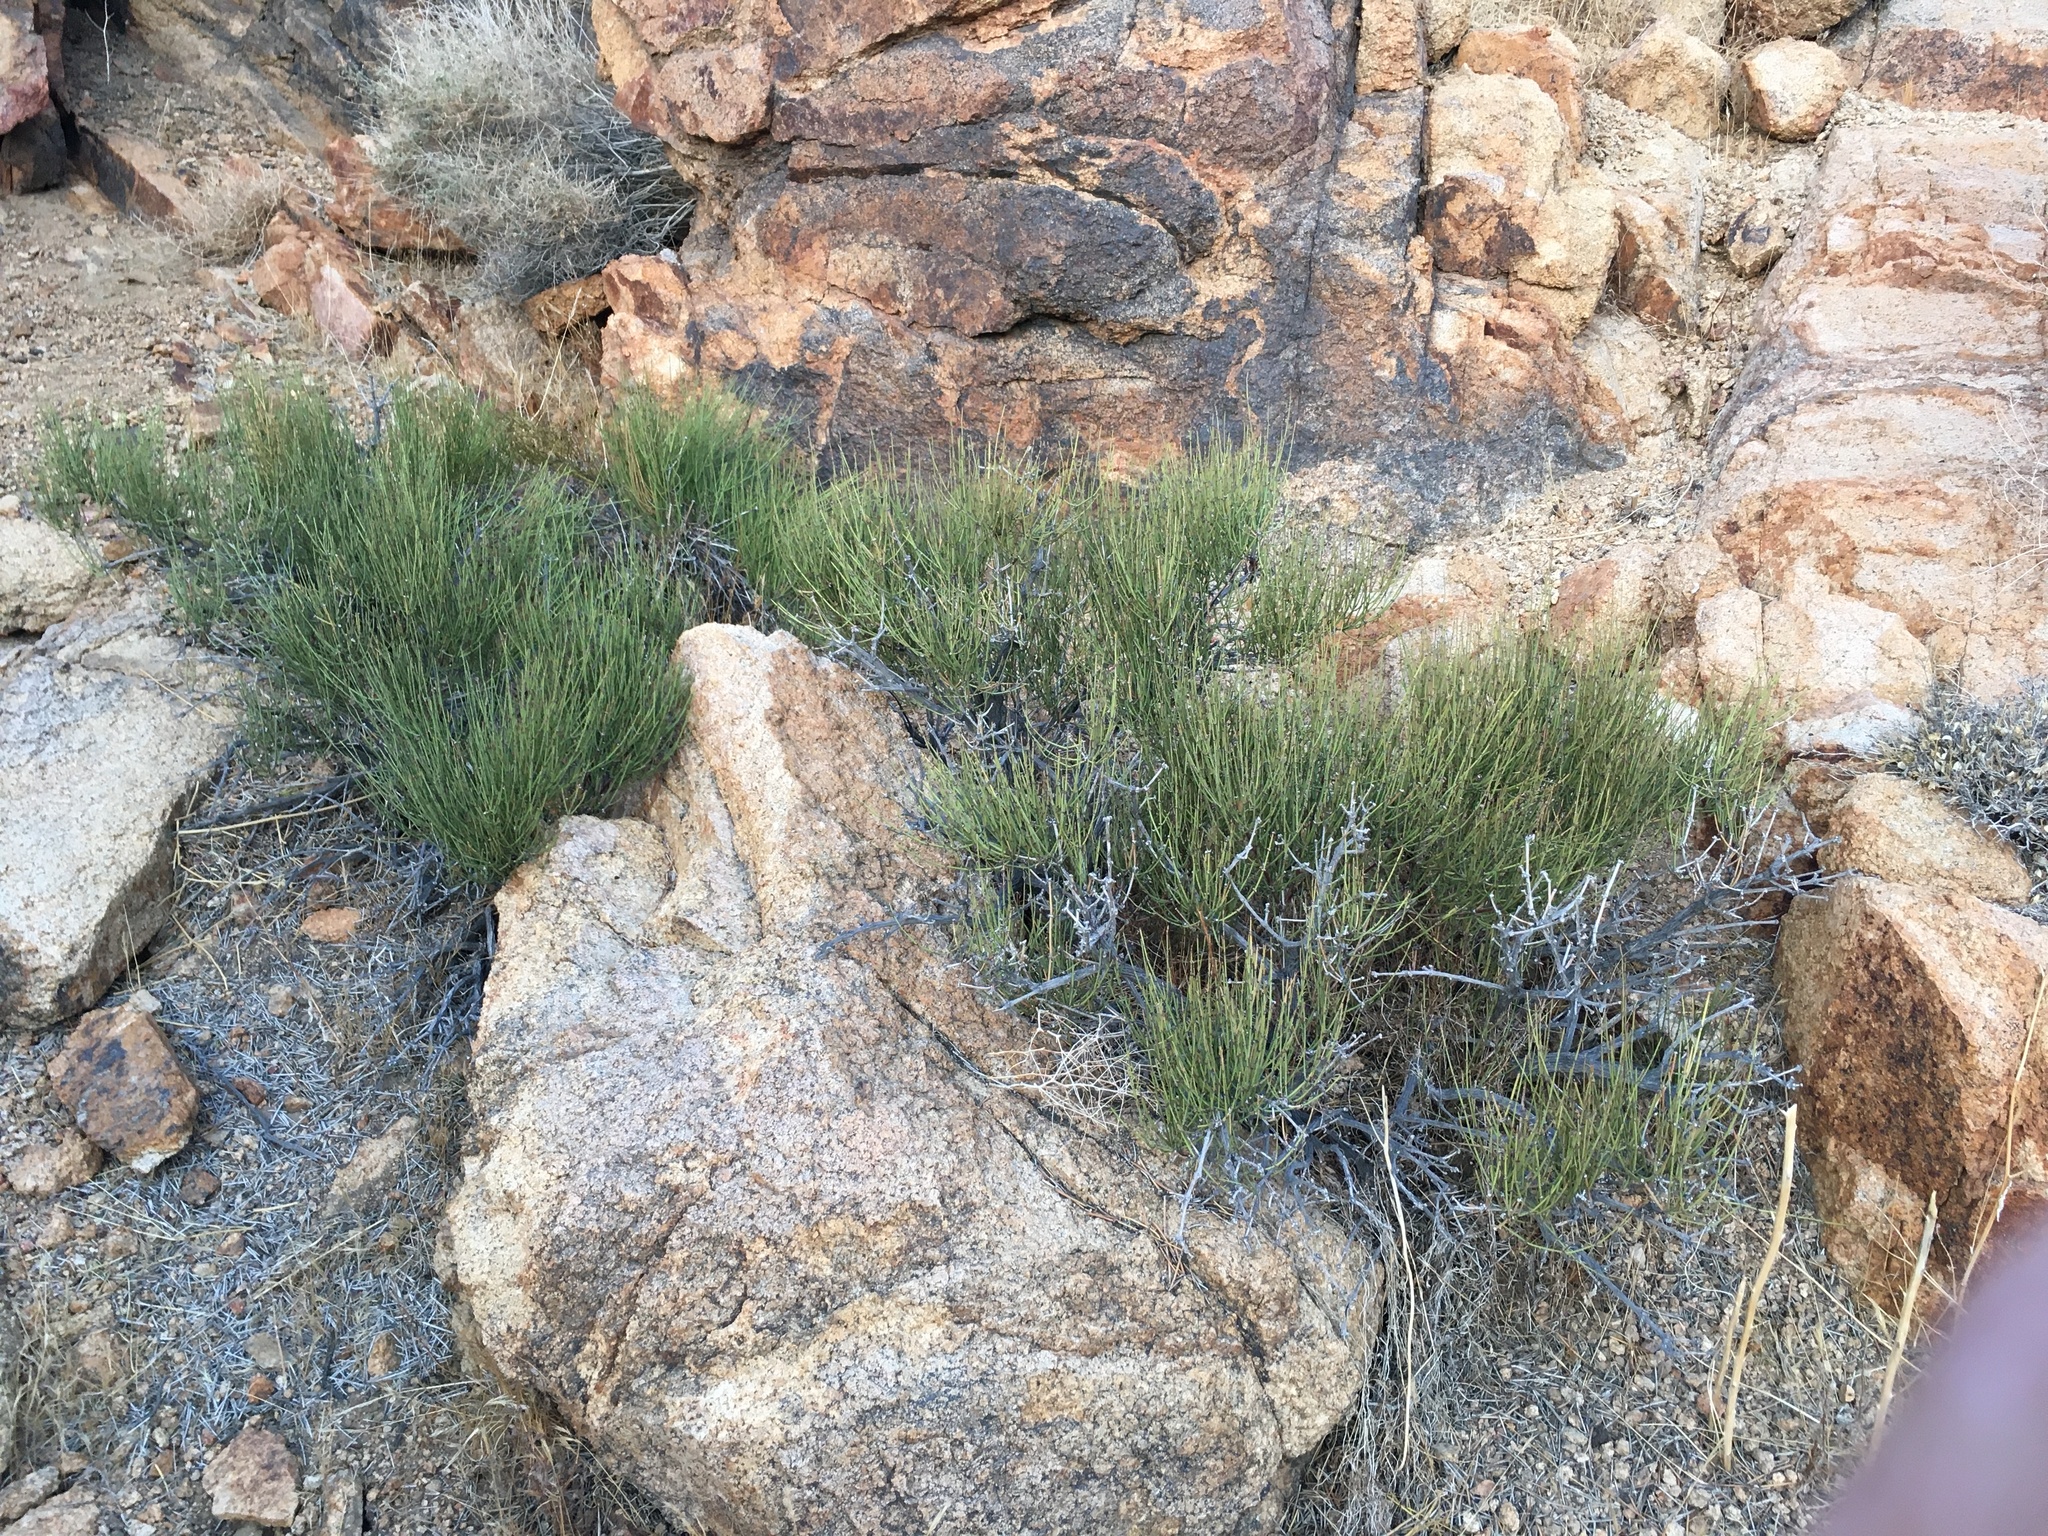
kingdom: Plantae
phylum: Tracheophyta
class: Gnetopsida
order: Ephedrales
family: Ephedraceae
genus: Ephedra
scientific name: Ephedra viridis
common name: Green ephedra
